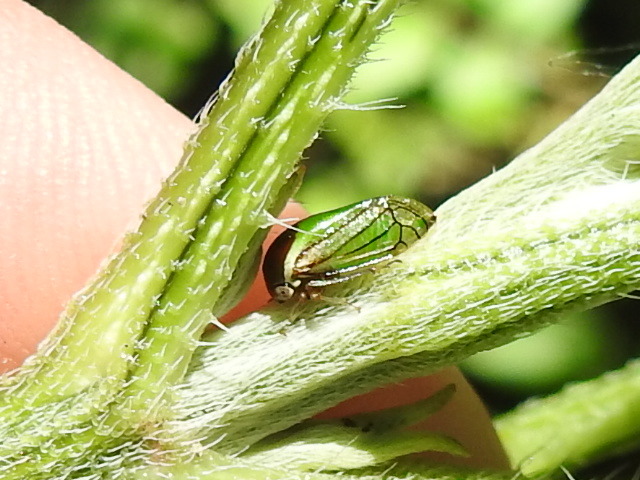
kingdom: Animalia
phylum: Arthropoda
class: Insecta
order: Hemiptera
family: Membracidae
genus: Acutalis
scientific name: Acutalis tartarea
